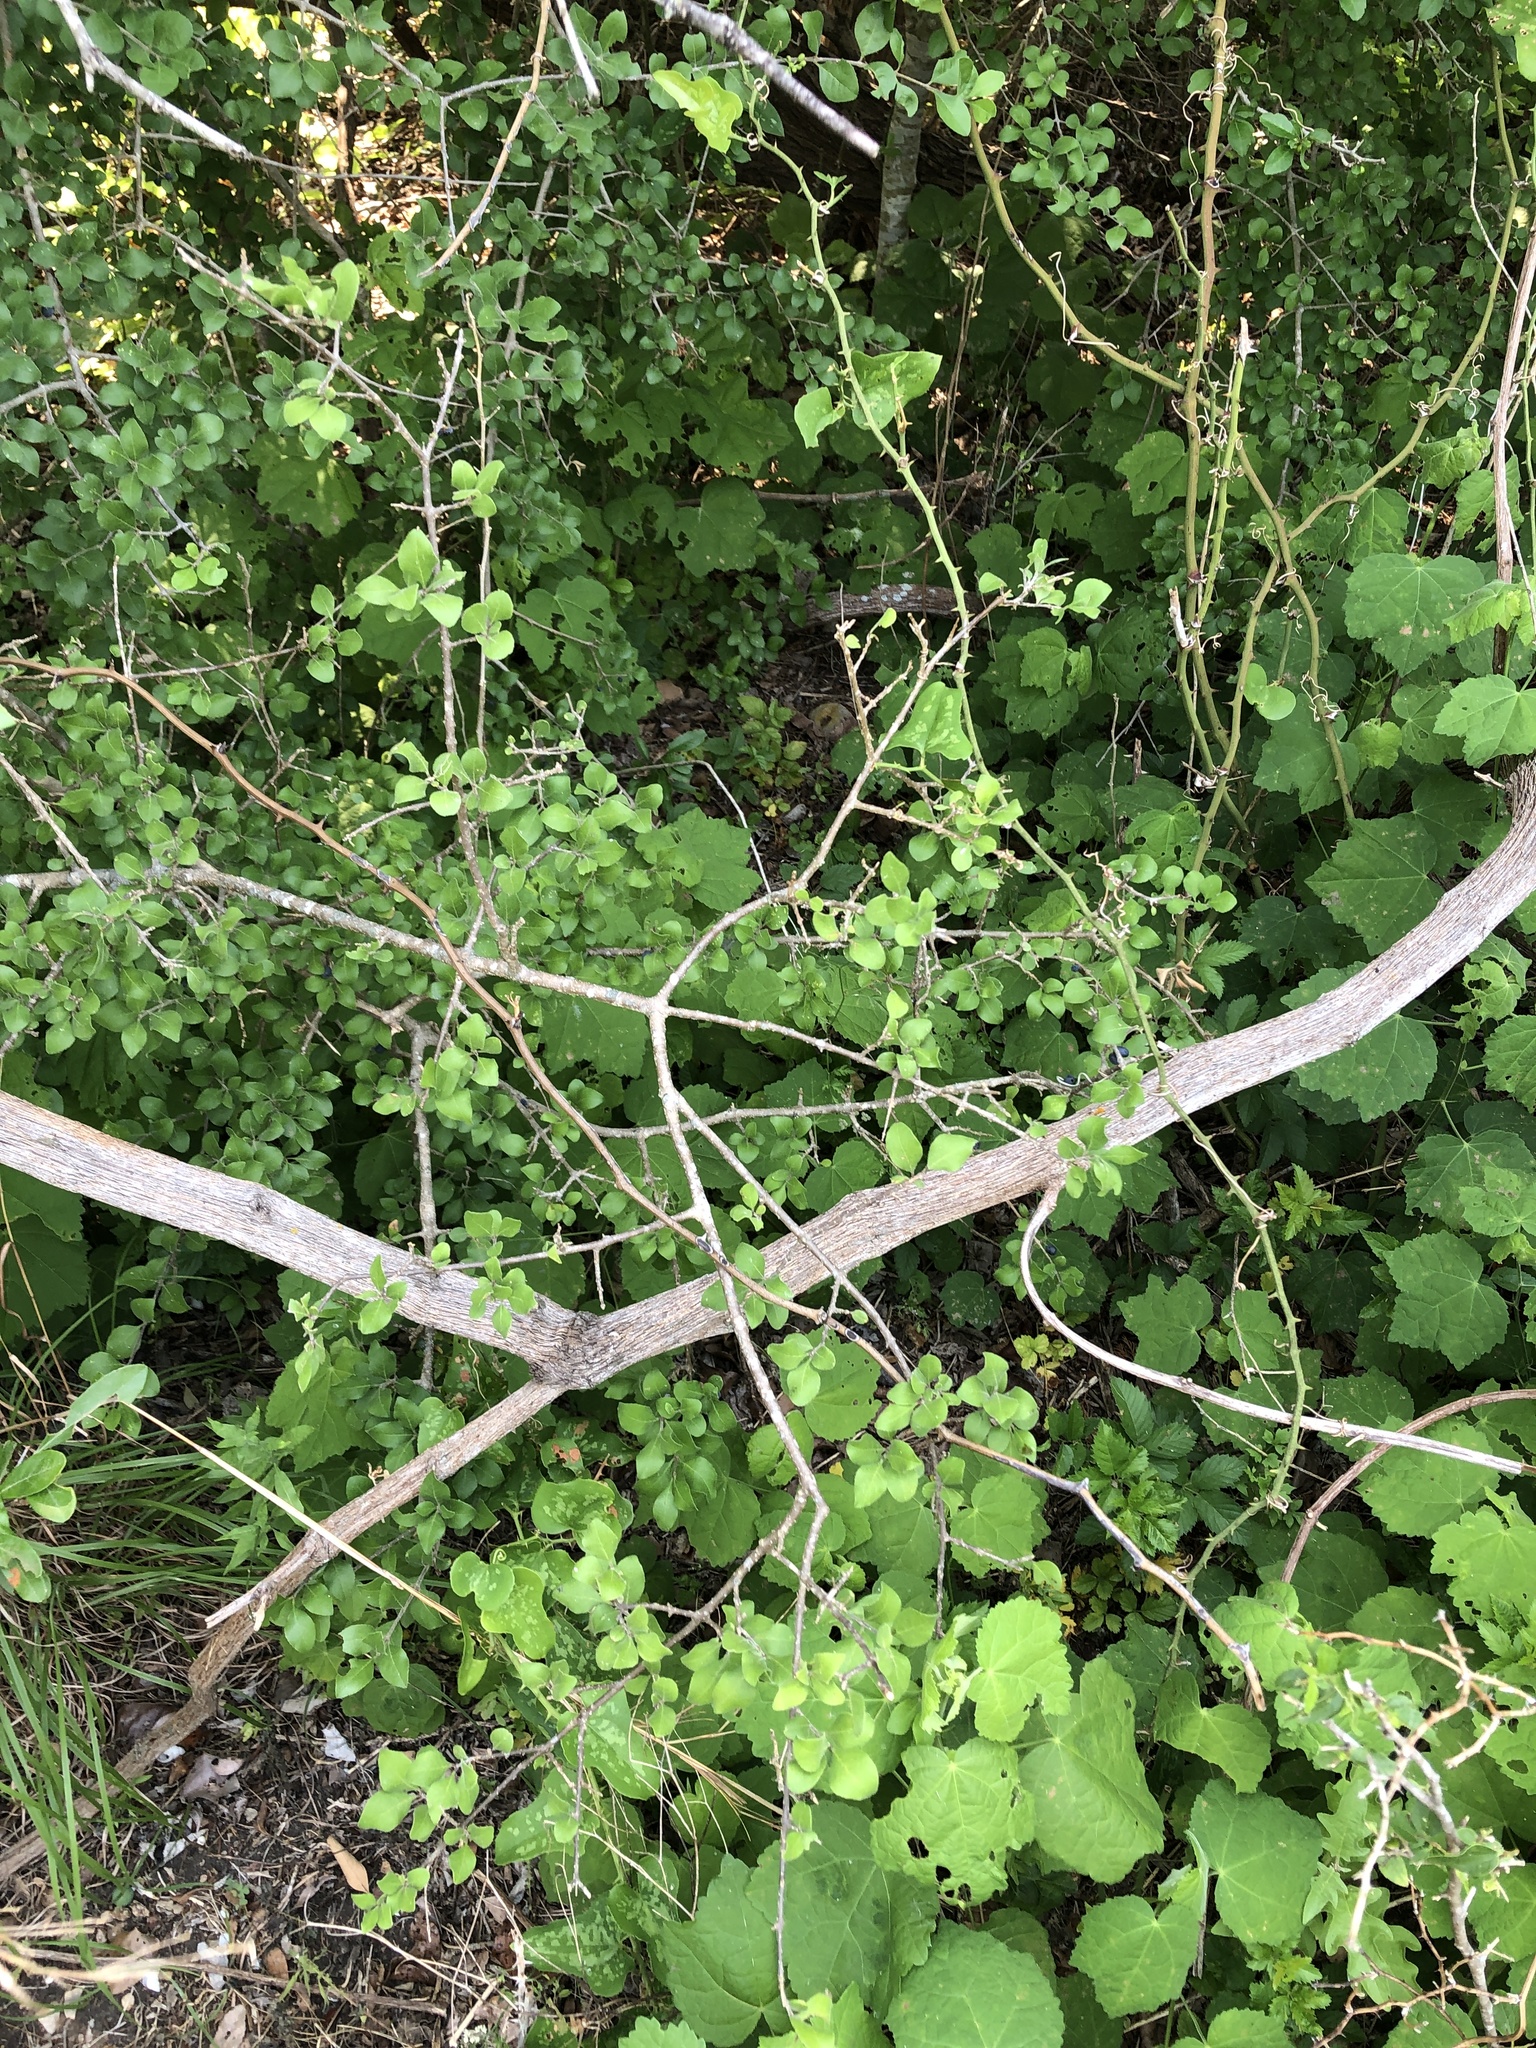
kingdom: Plantae
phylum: Tracheophyta
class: Magnoliopsida
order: Lamiales
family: Oleaceae
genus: Forestiera
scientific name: Forestiera pubescens
